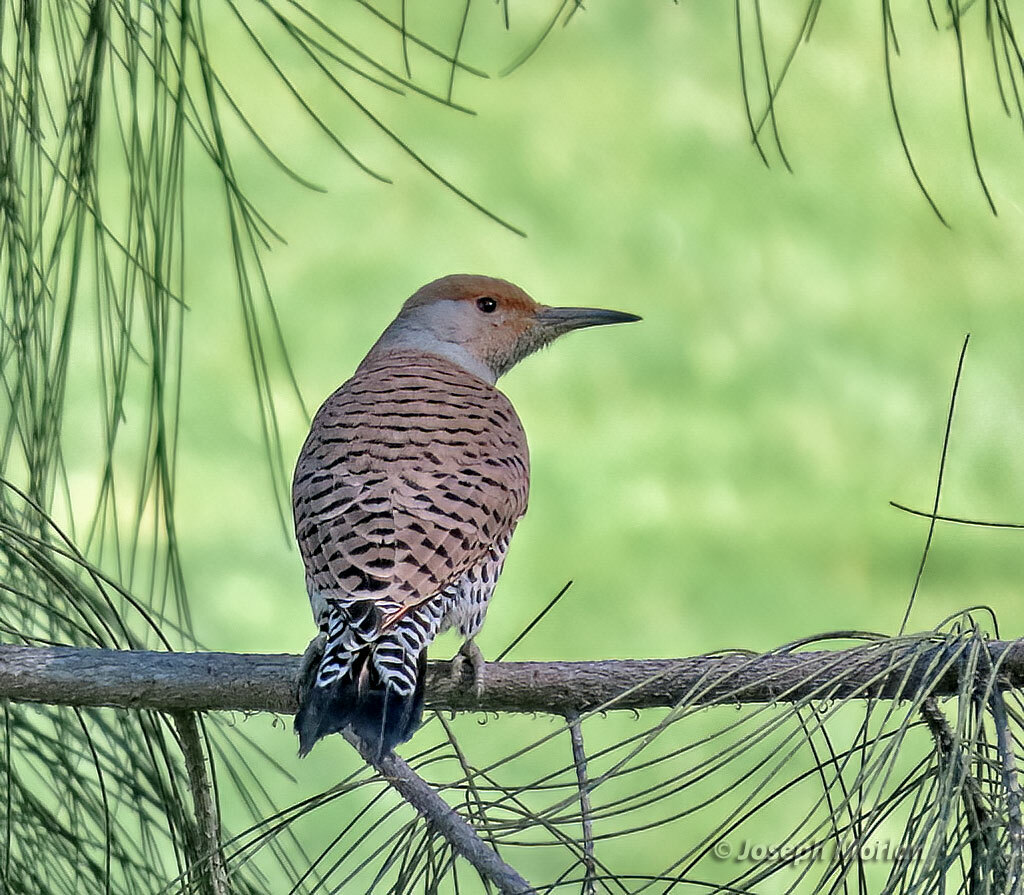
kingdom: Animalia
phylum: Chordata
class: Aves
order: Piciformes
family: Picidae
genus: Colaptes
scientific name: Colaptes auratus
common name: Northern flicker
